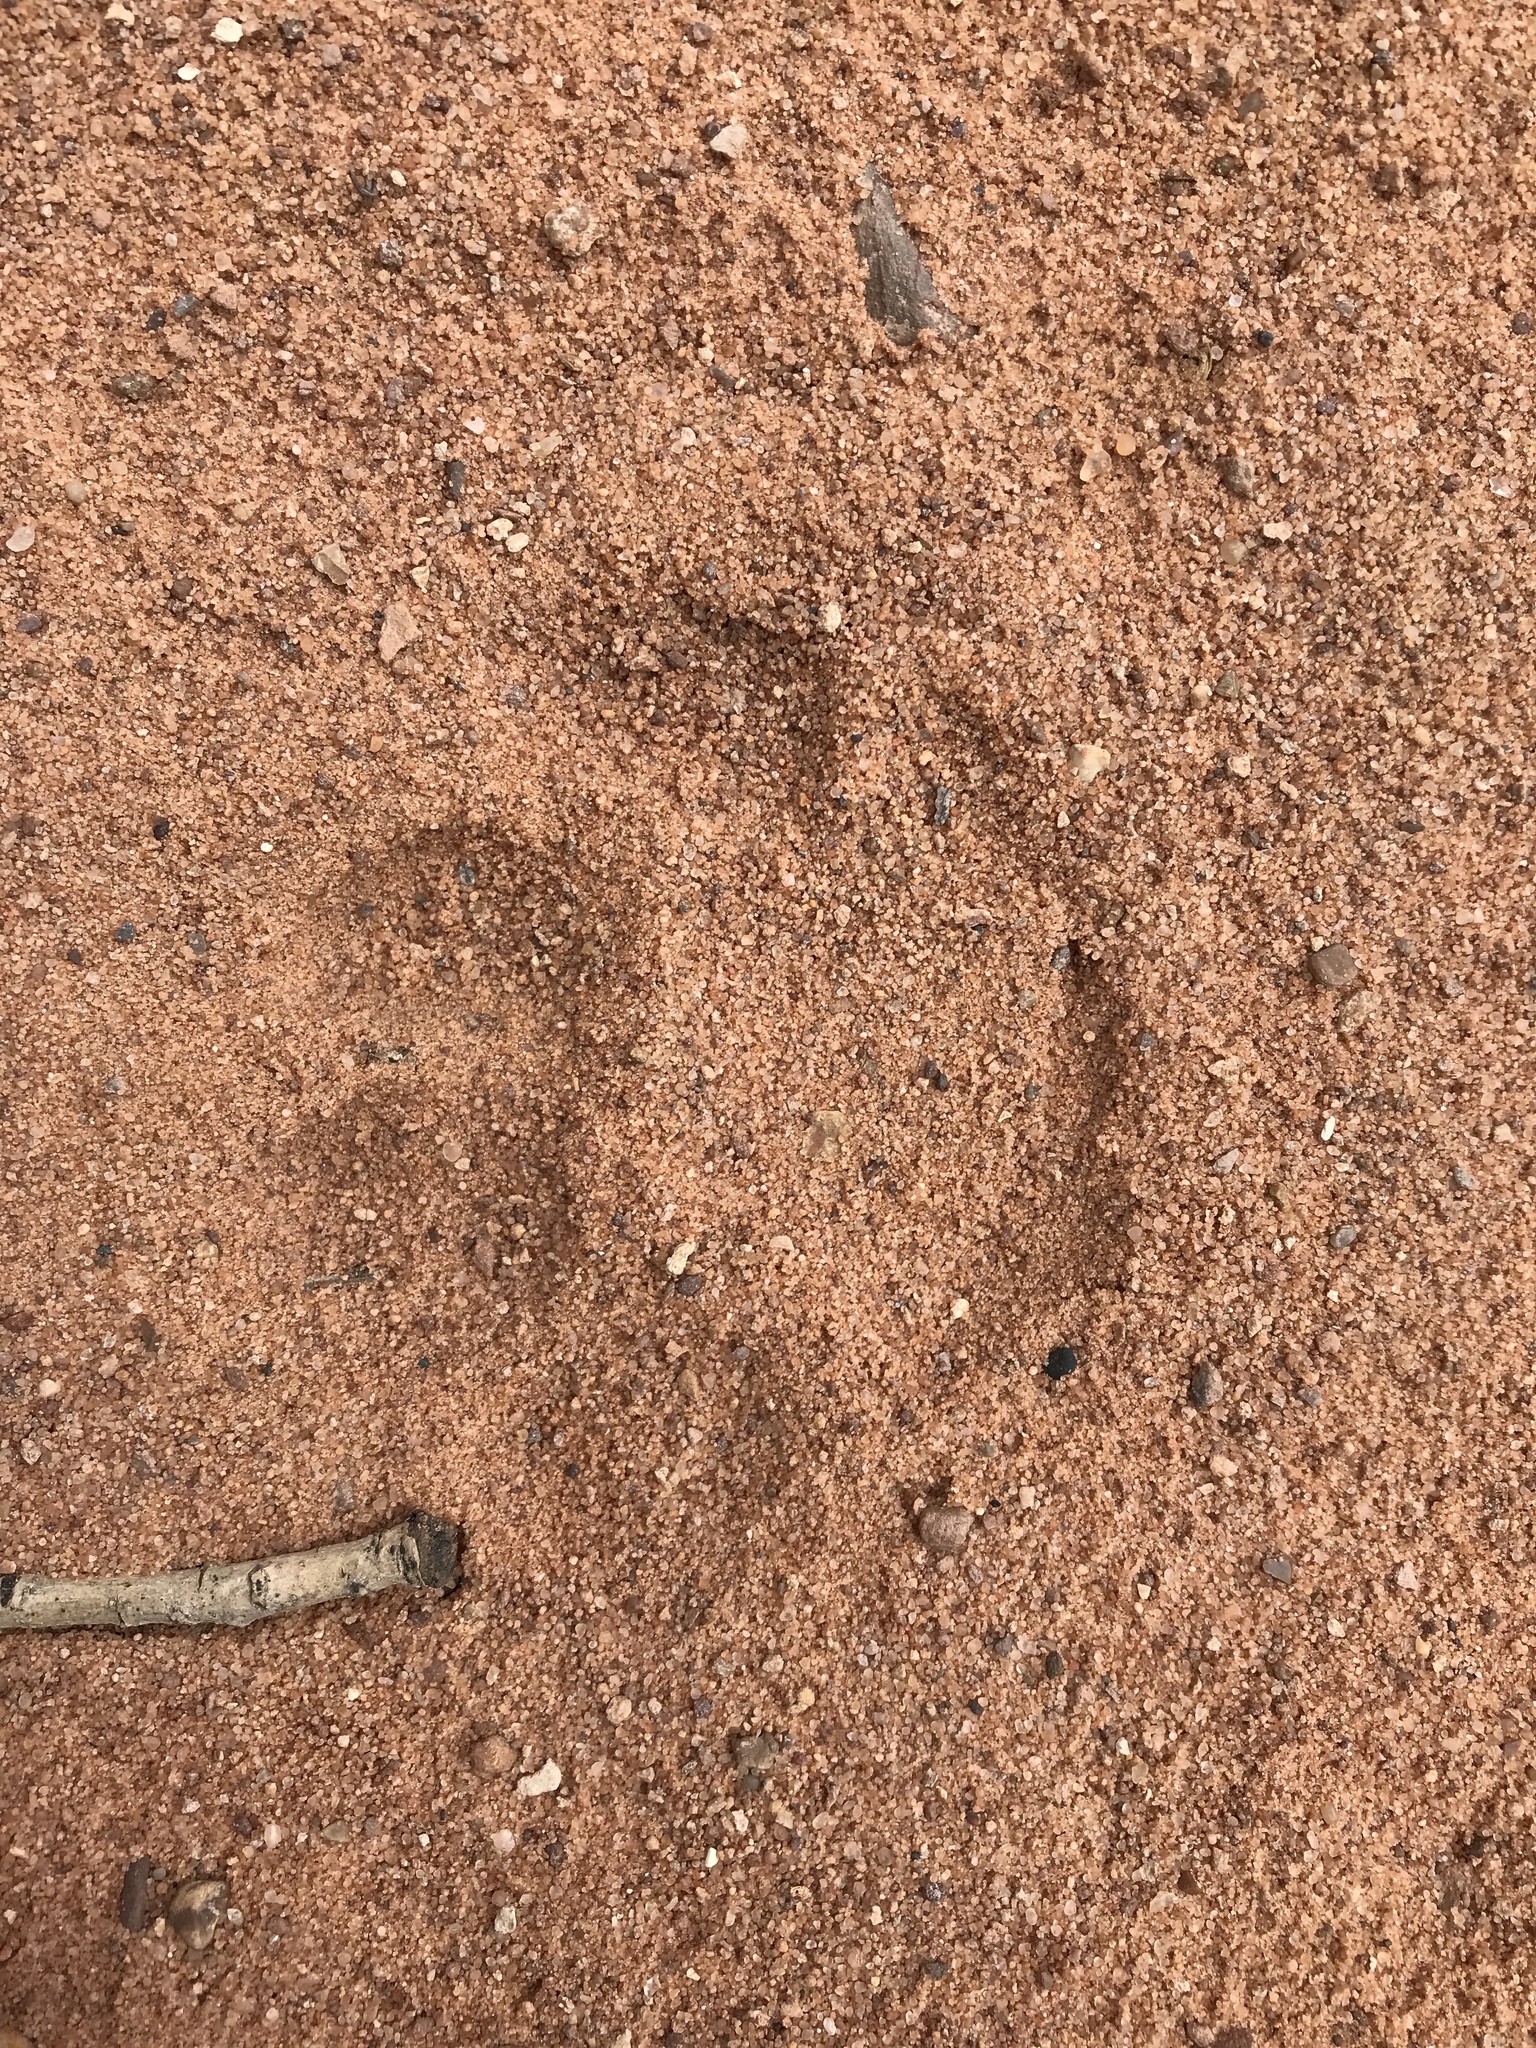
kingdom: Animalia
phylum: Chordata
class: Mammalia
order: Carnivora
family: Felidae
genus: Puma
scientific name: Puma concolor
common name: Puma
